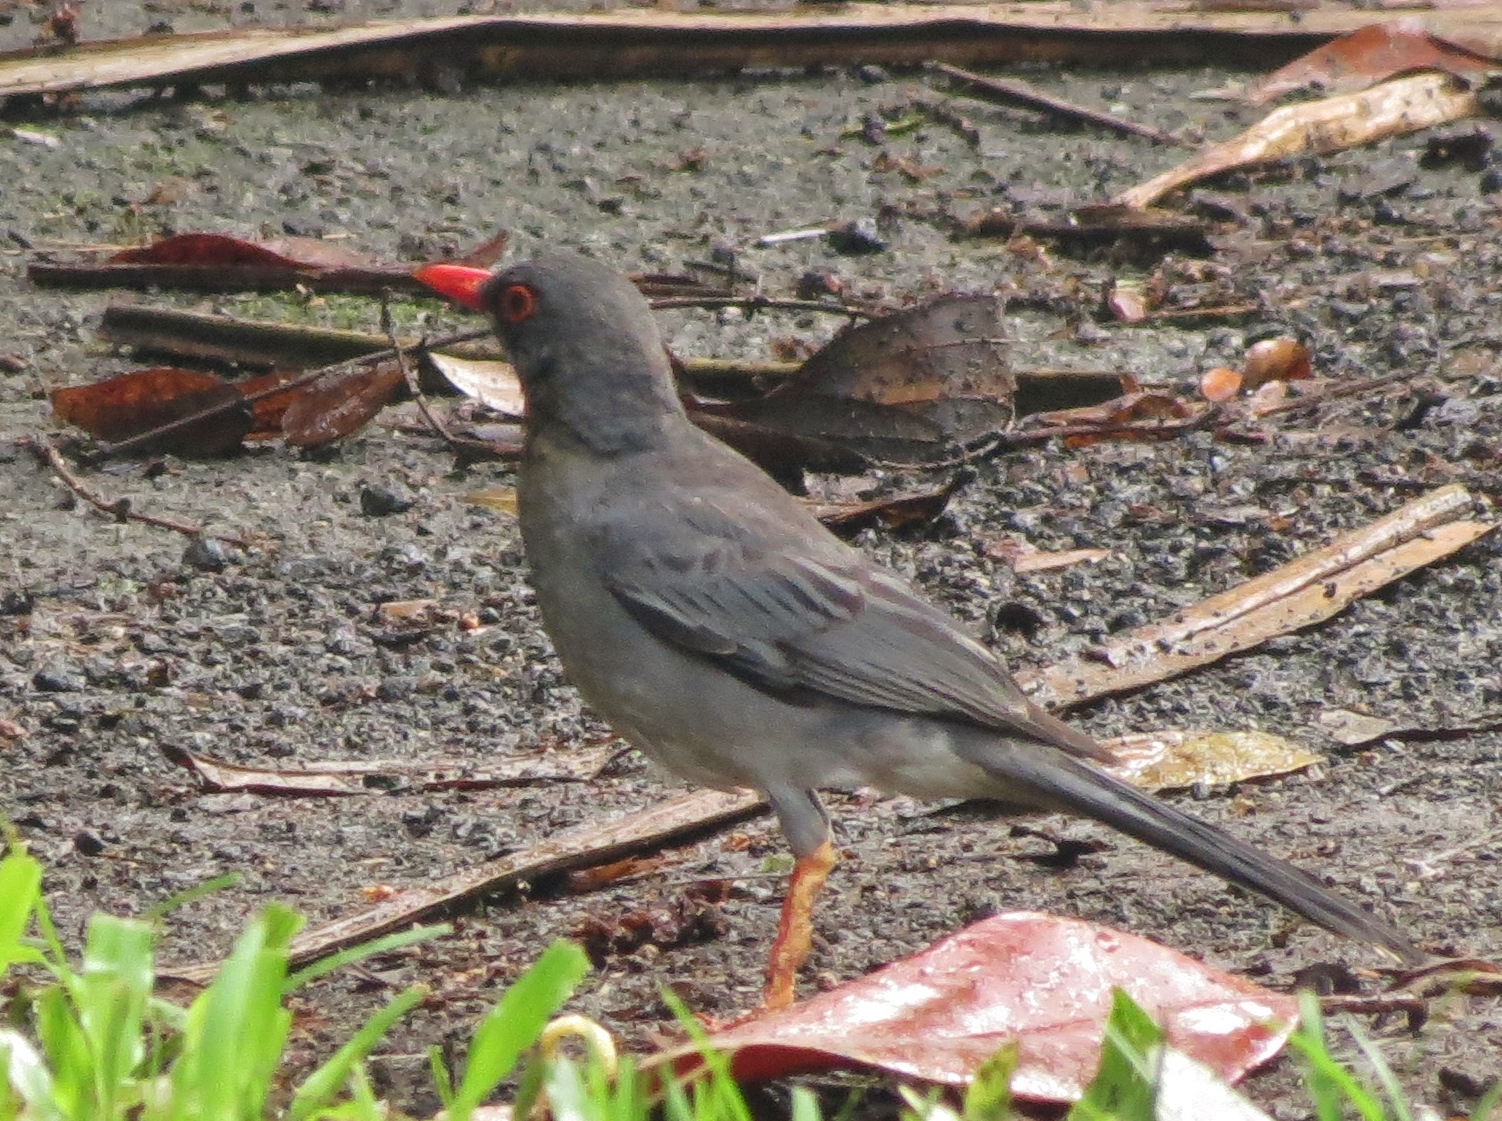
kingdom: Animalia
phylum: Chordata
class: Aves
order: Passeriformes
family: Turdidae
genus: Turdus
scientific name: Turdus plumbeus
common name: Red-legged thrush
